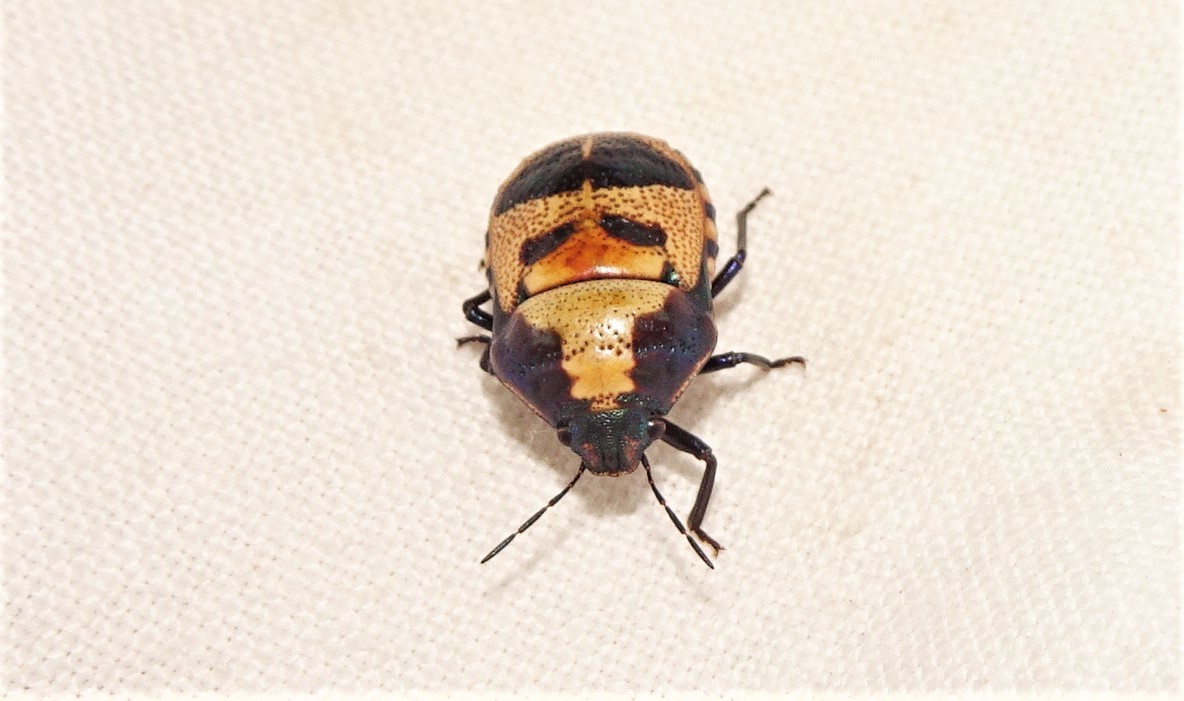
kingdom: Animalia
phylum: Arthropoda
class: Insecta
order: Hemiptera
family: Scutelleridae
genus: Choerocoris
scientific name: Choerocoris paganus
